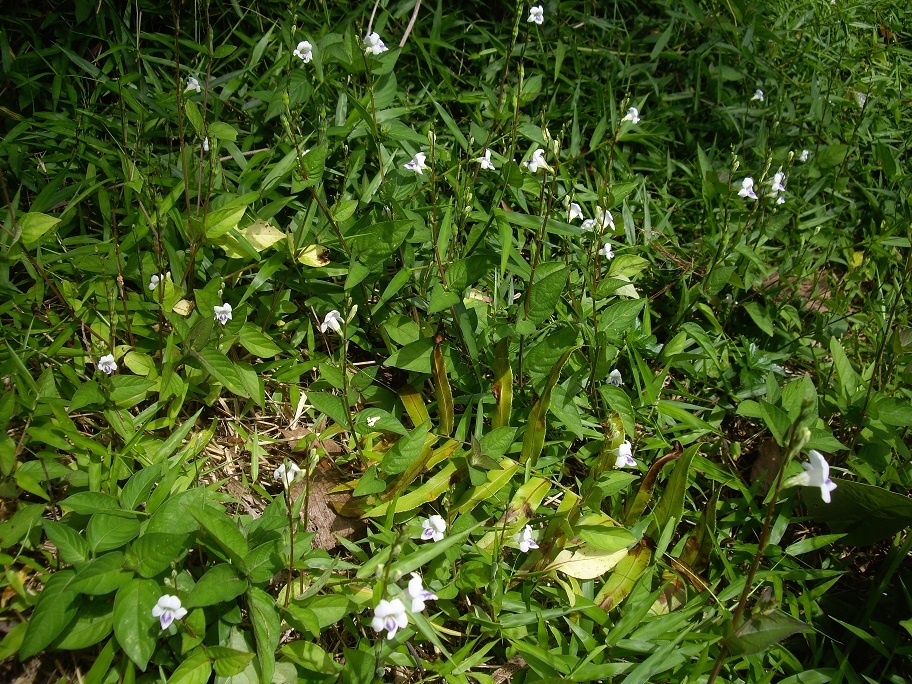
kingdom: Plantae
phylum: Tracheophyta
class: Magnoliopsida
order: Lamiales
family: Acanthaceae
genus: Asystasia
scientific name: Asystasia intrusa
